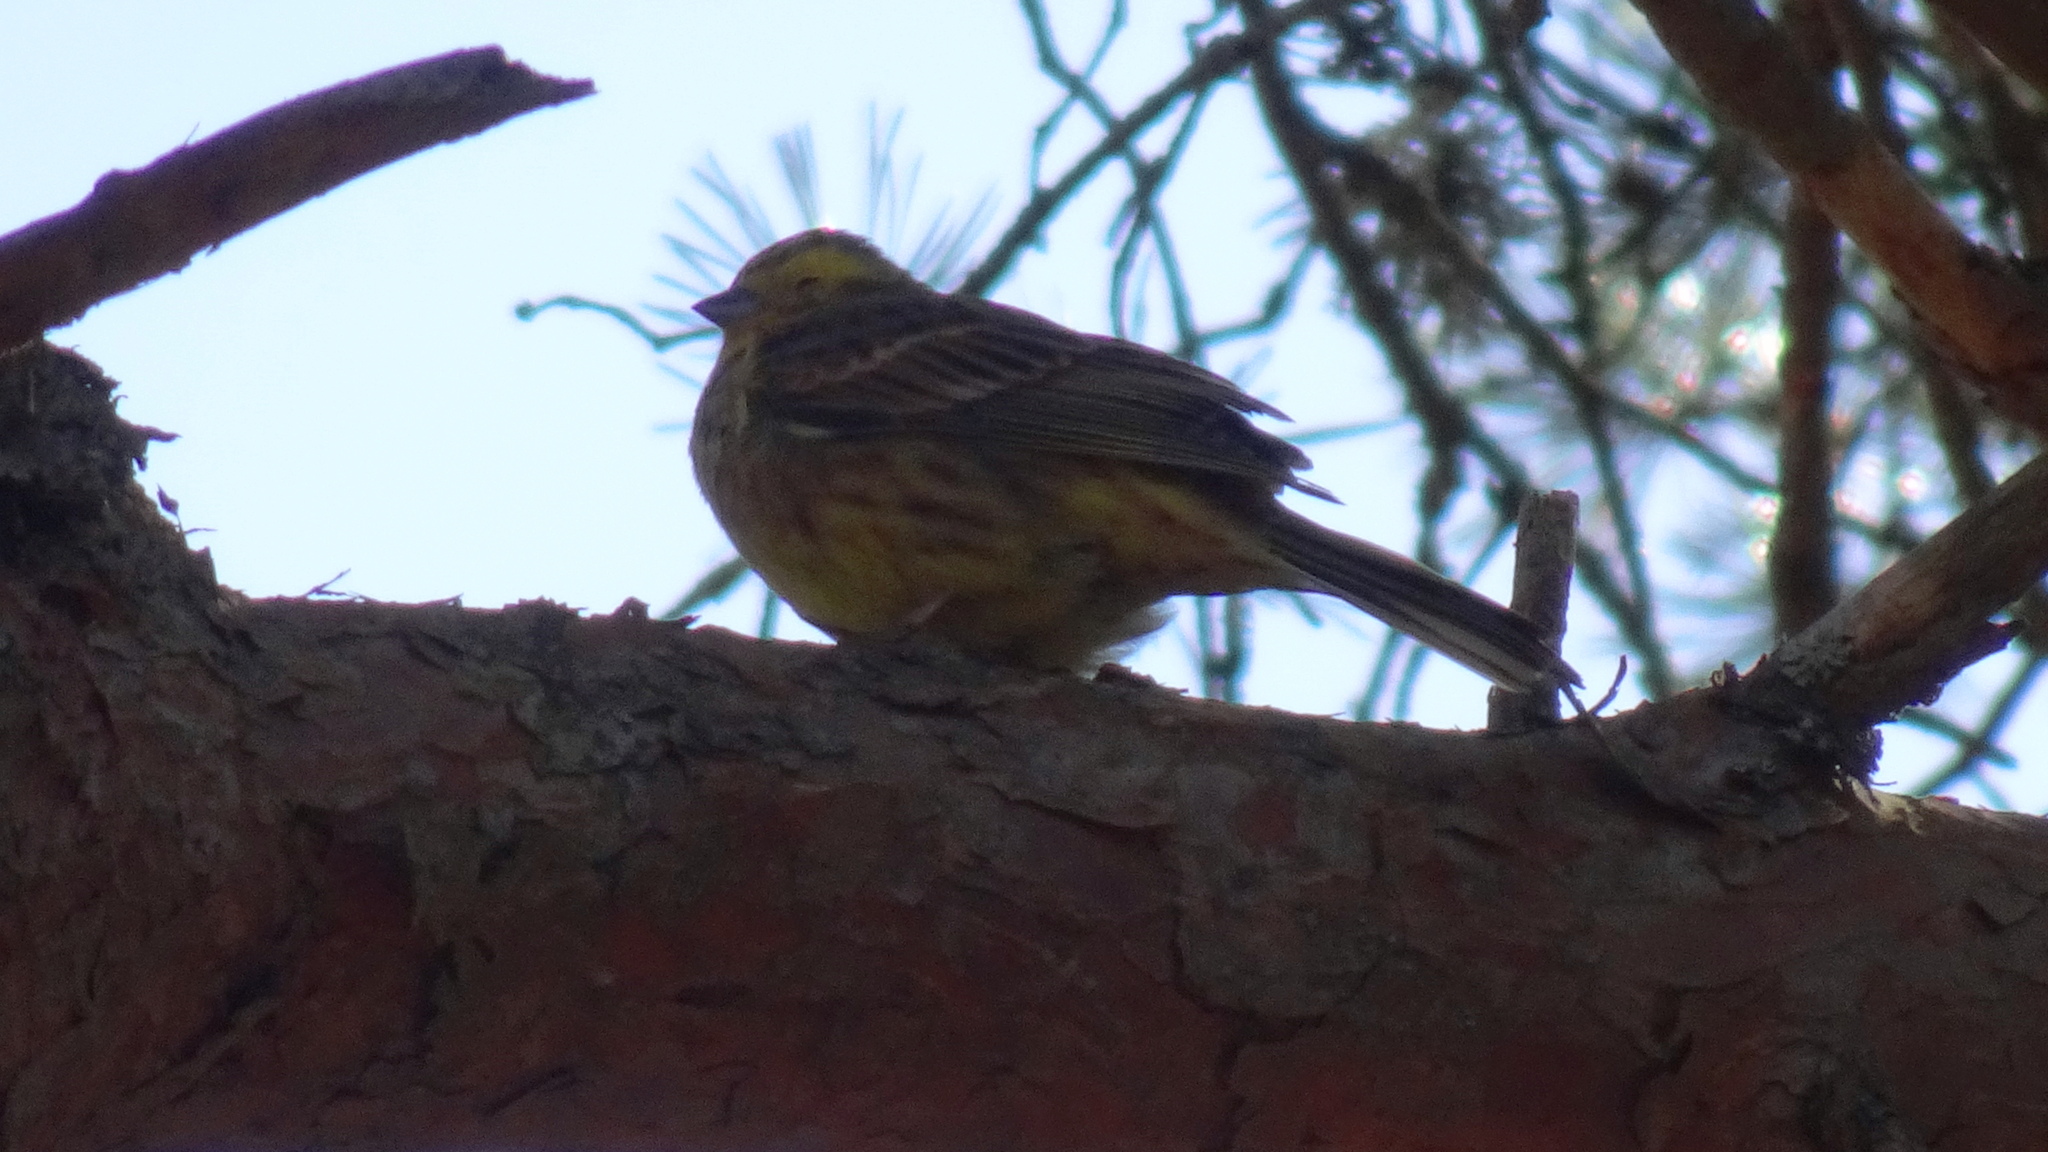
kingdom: Animalia
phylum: Chordata
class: Aves
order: Passeriformes
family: Emberizidae
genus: Emberiza
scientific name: Emberiza citrinella
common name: Yellowhammer
